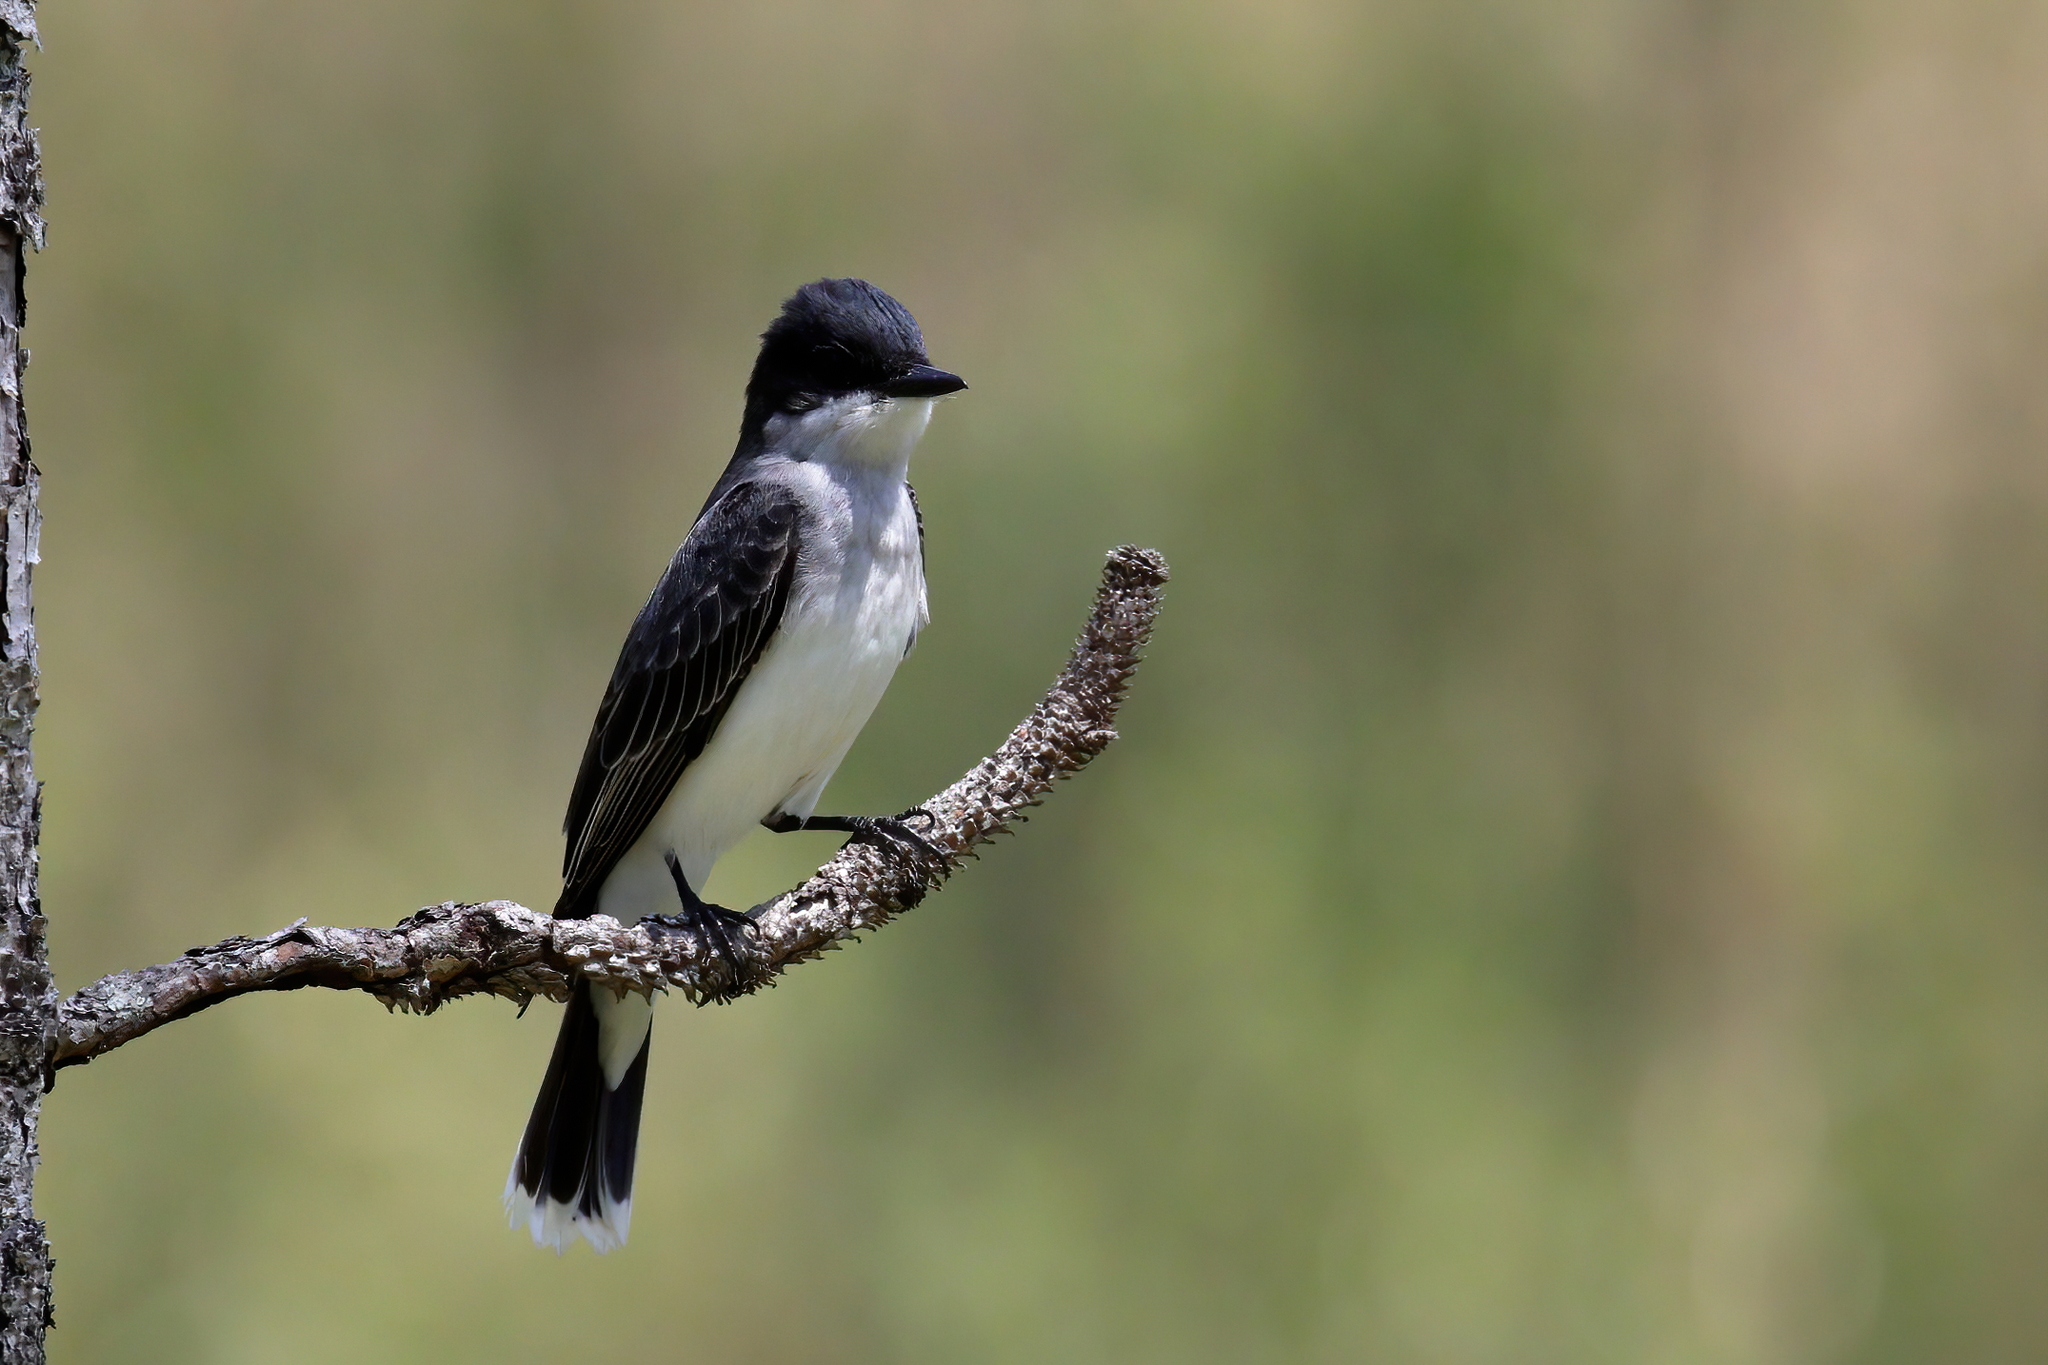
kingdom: Animalia
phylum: Chordata
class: Aves
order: Passeriformes
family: Tyrannidae
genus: Tyrannus
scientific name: Tyrannus tyrannus
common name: Eastern kingbird
